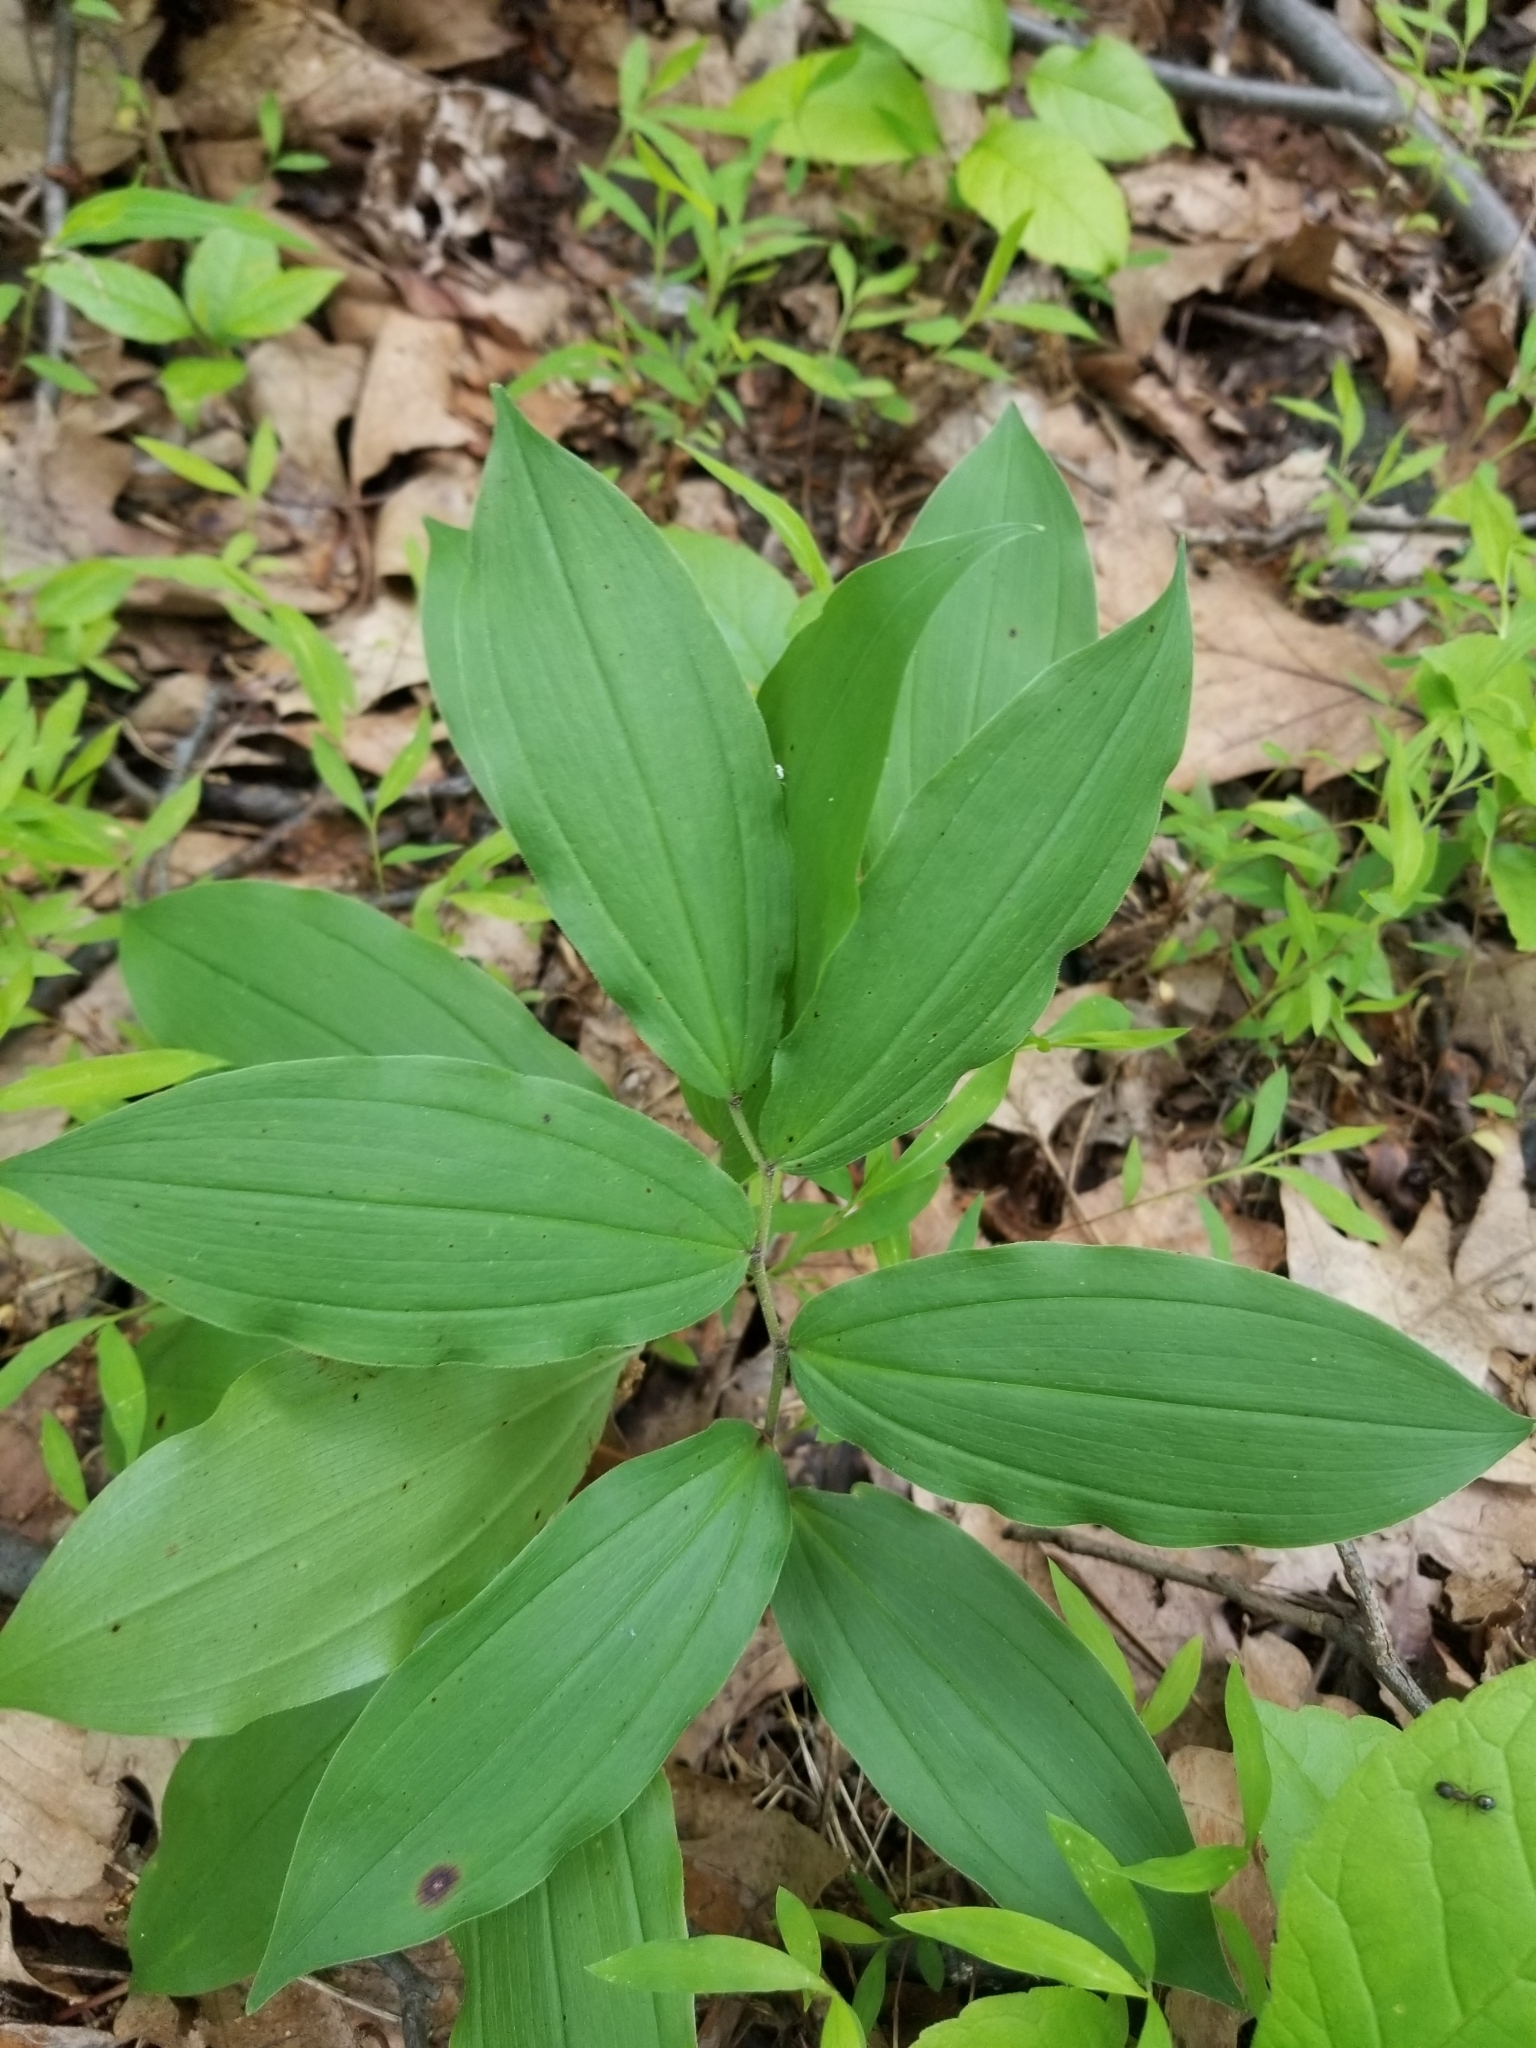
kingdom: Plantae
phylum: Tracheophyta
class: Liliopsida
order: Asparagales
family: Asparagaceae
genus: Maianthemum
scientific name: Maianthemum racemosum
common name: False spikenard
